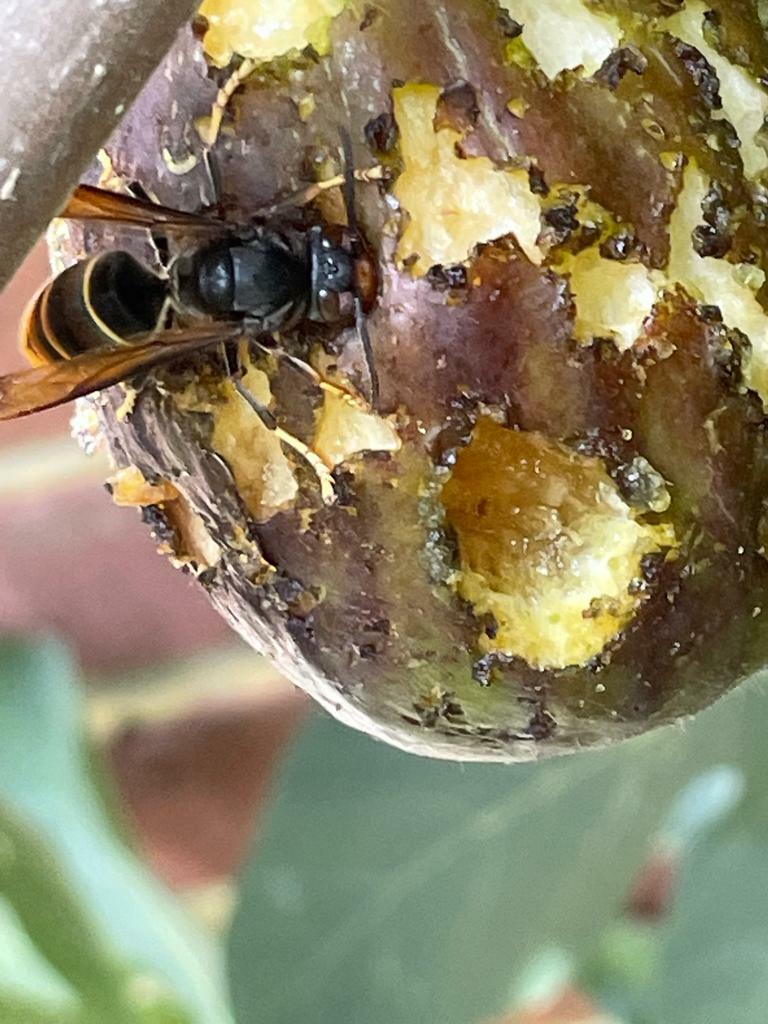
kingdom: Animalia
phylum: Arthropoda
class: Insecta
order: Hymenoptera
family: Vespidae
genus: Vespa
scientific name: Vespa velutina
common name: Asian hornet
